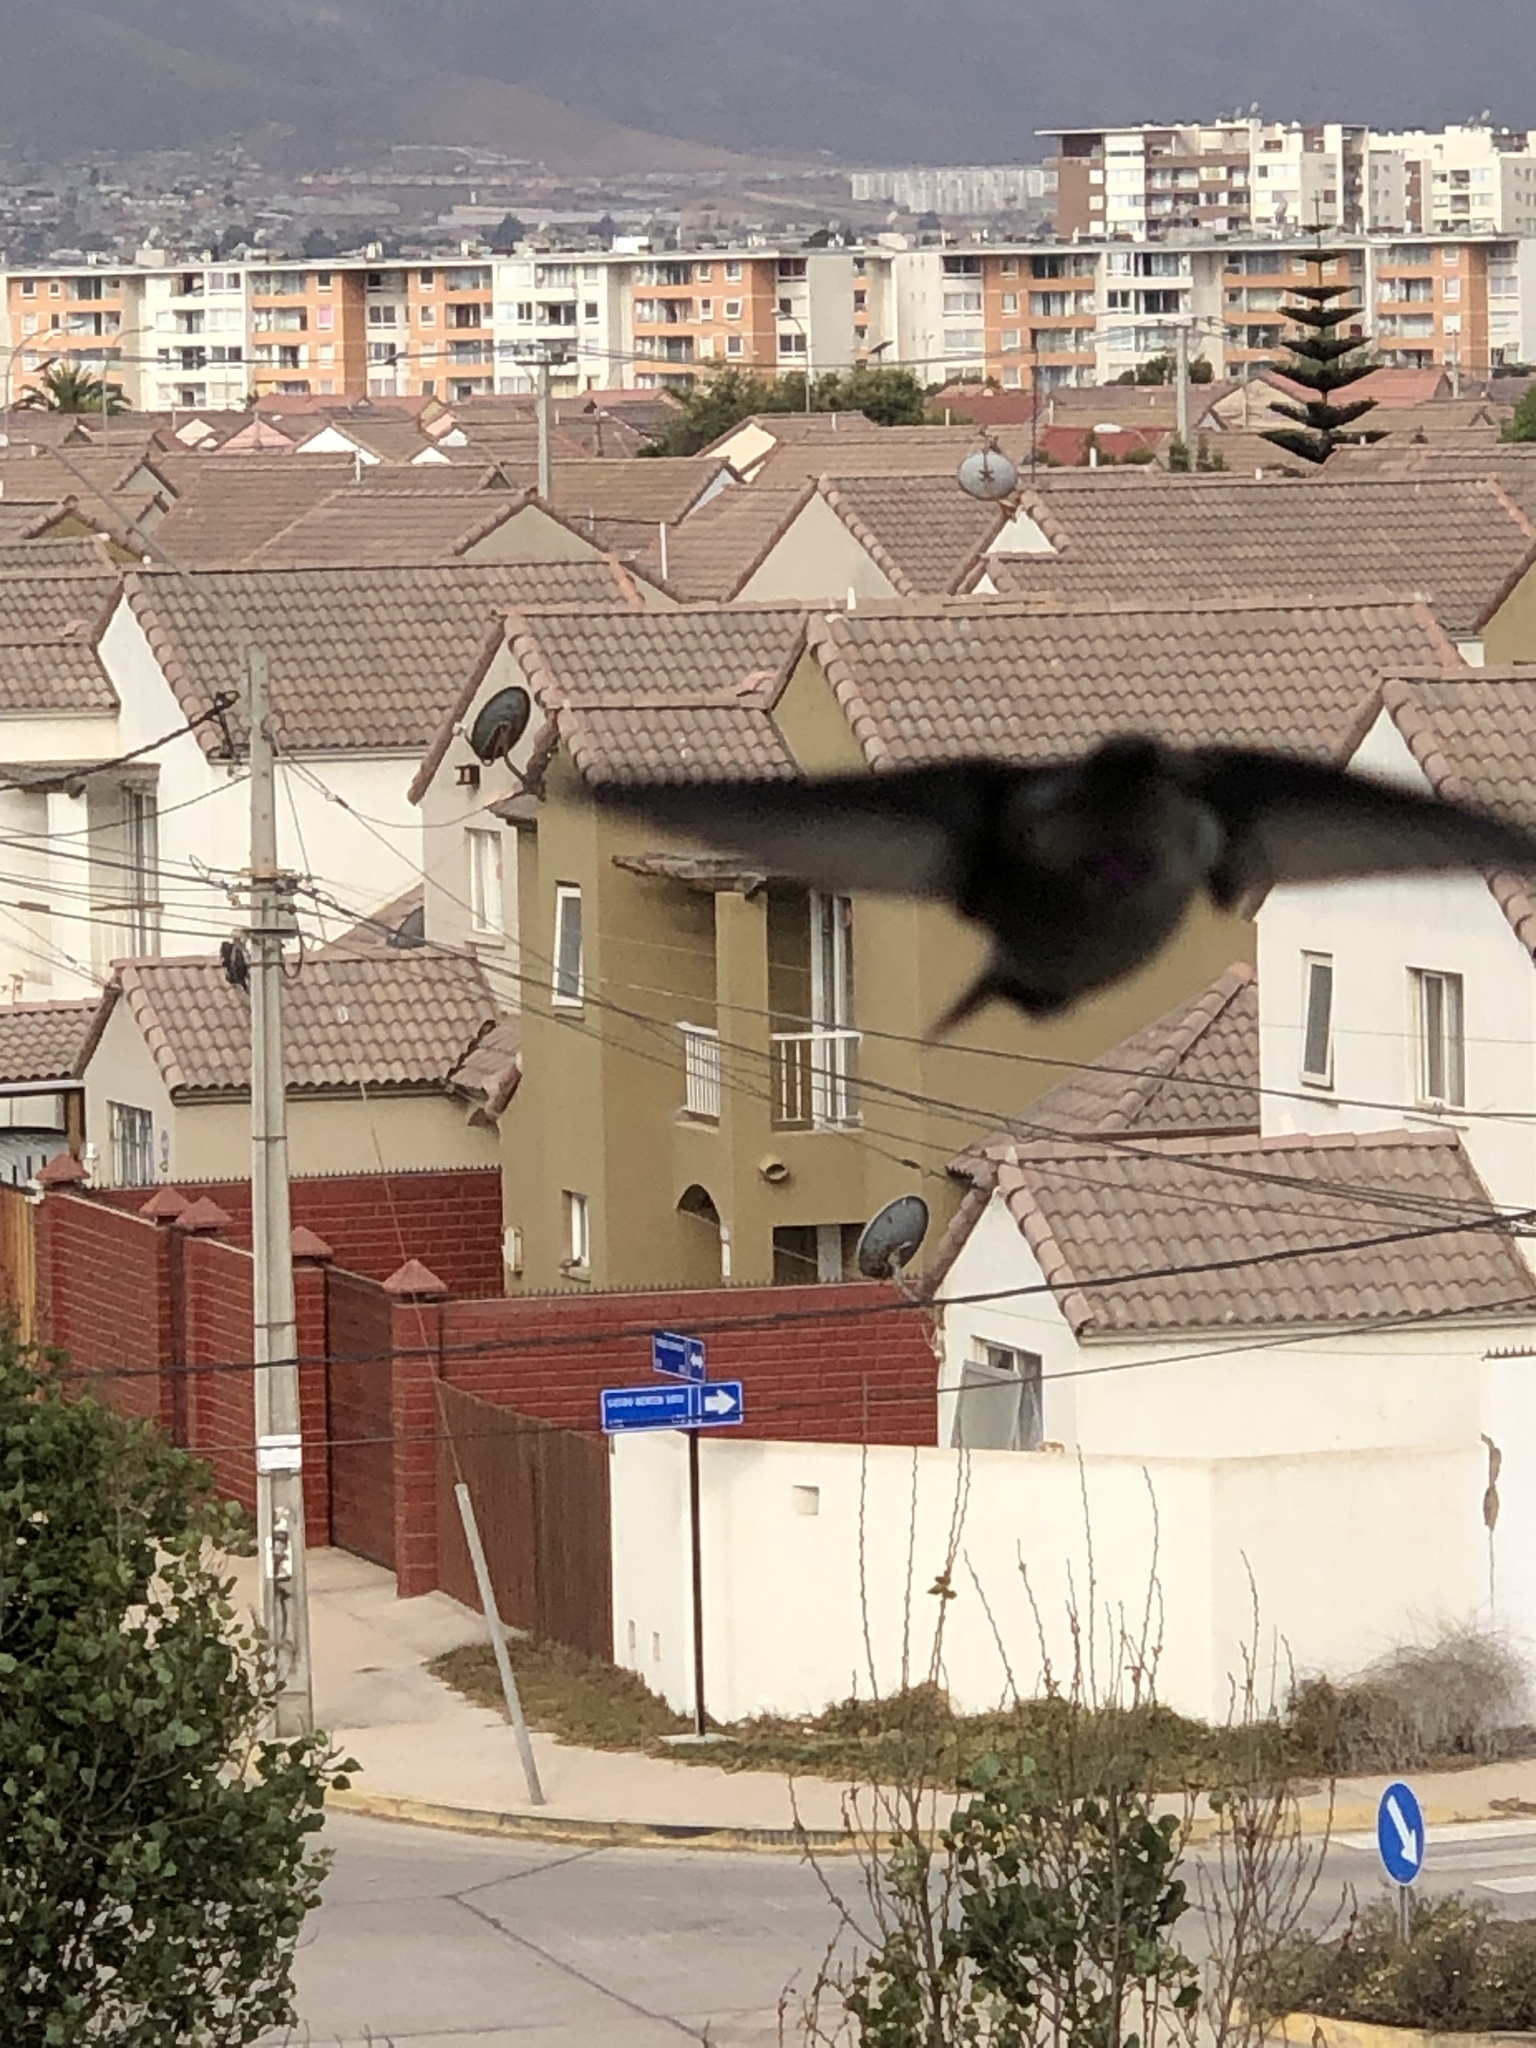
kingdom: Animalia
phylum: Chordata
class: Aves
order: Apodiformes
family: Trochilidae
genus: Rhodopis
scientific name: Rhodopis vesper
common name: Oasis hummingbird
